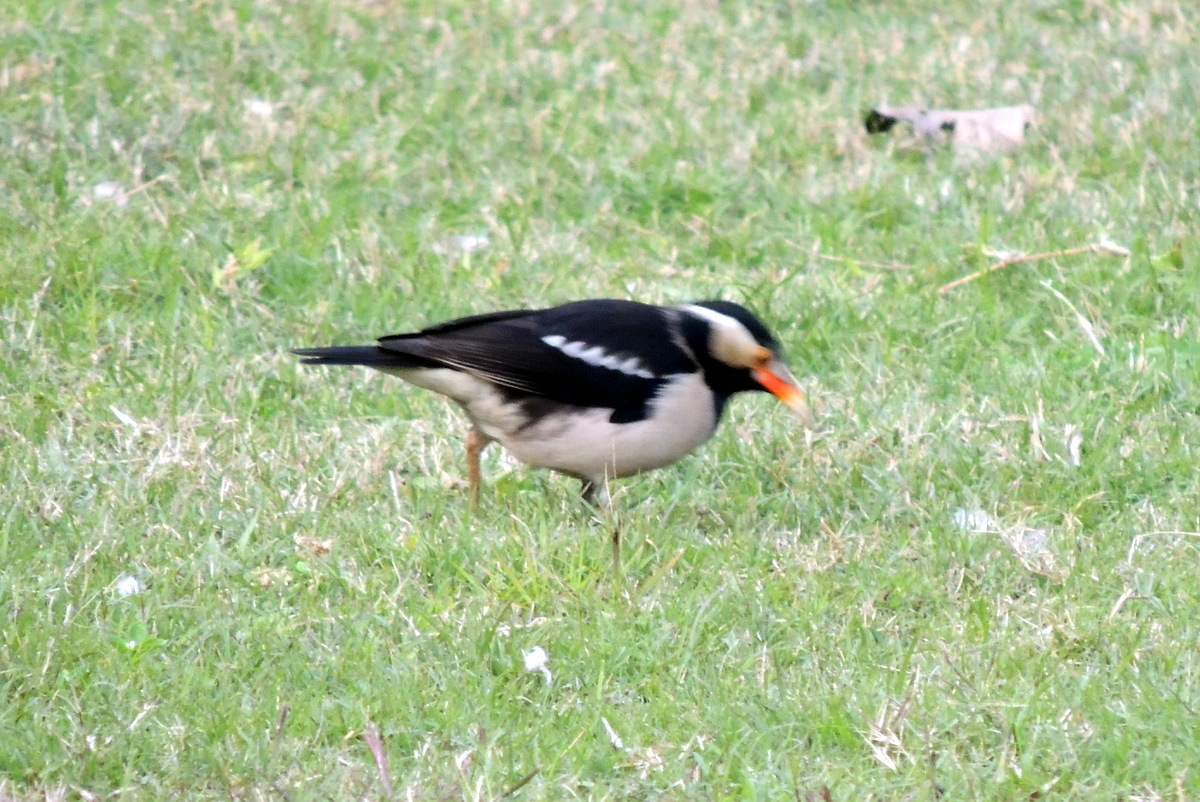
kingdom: Animalia
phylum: Chordata
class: Aves
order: Passeriformes
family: Sturnidae
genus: Gracupica
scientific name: Gracupica contra
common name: Pied myna
